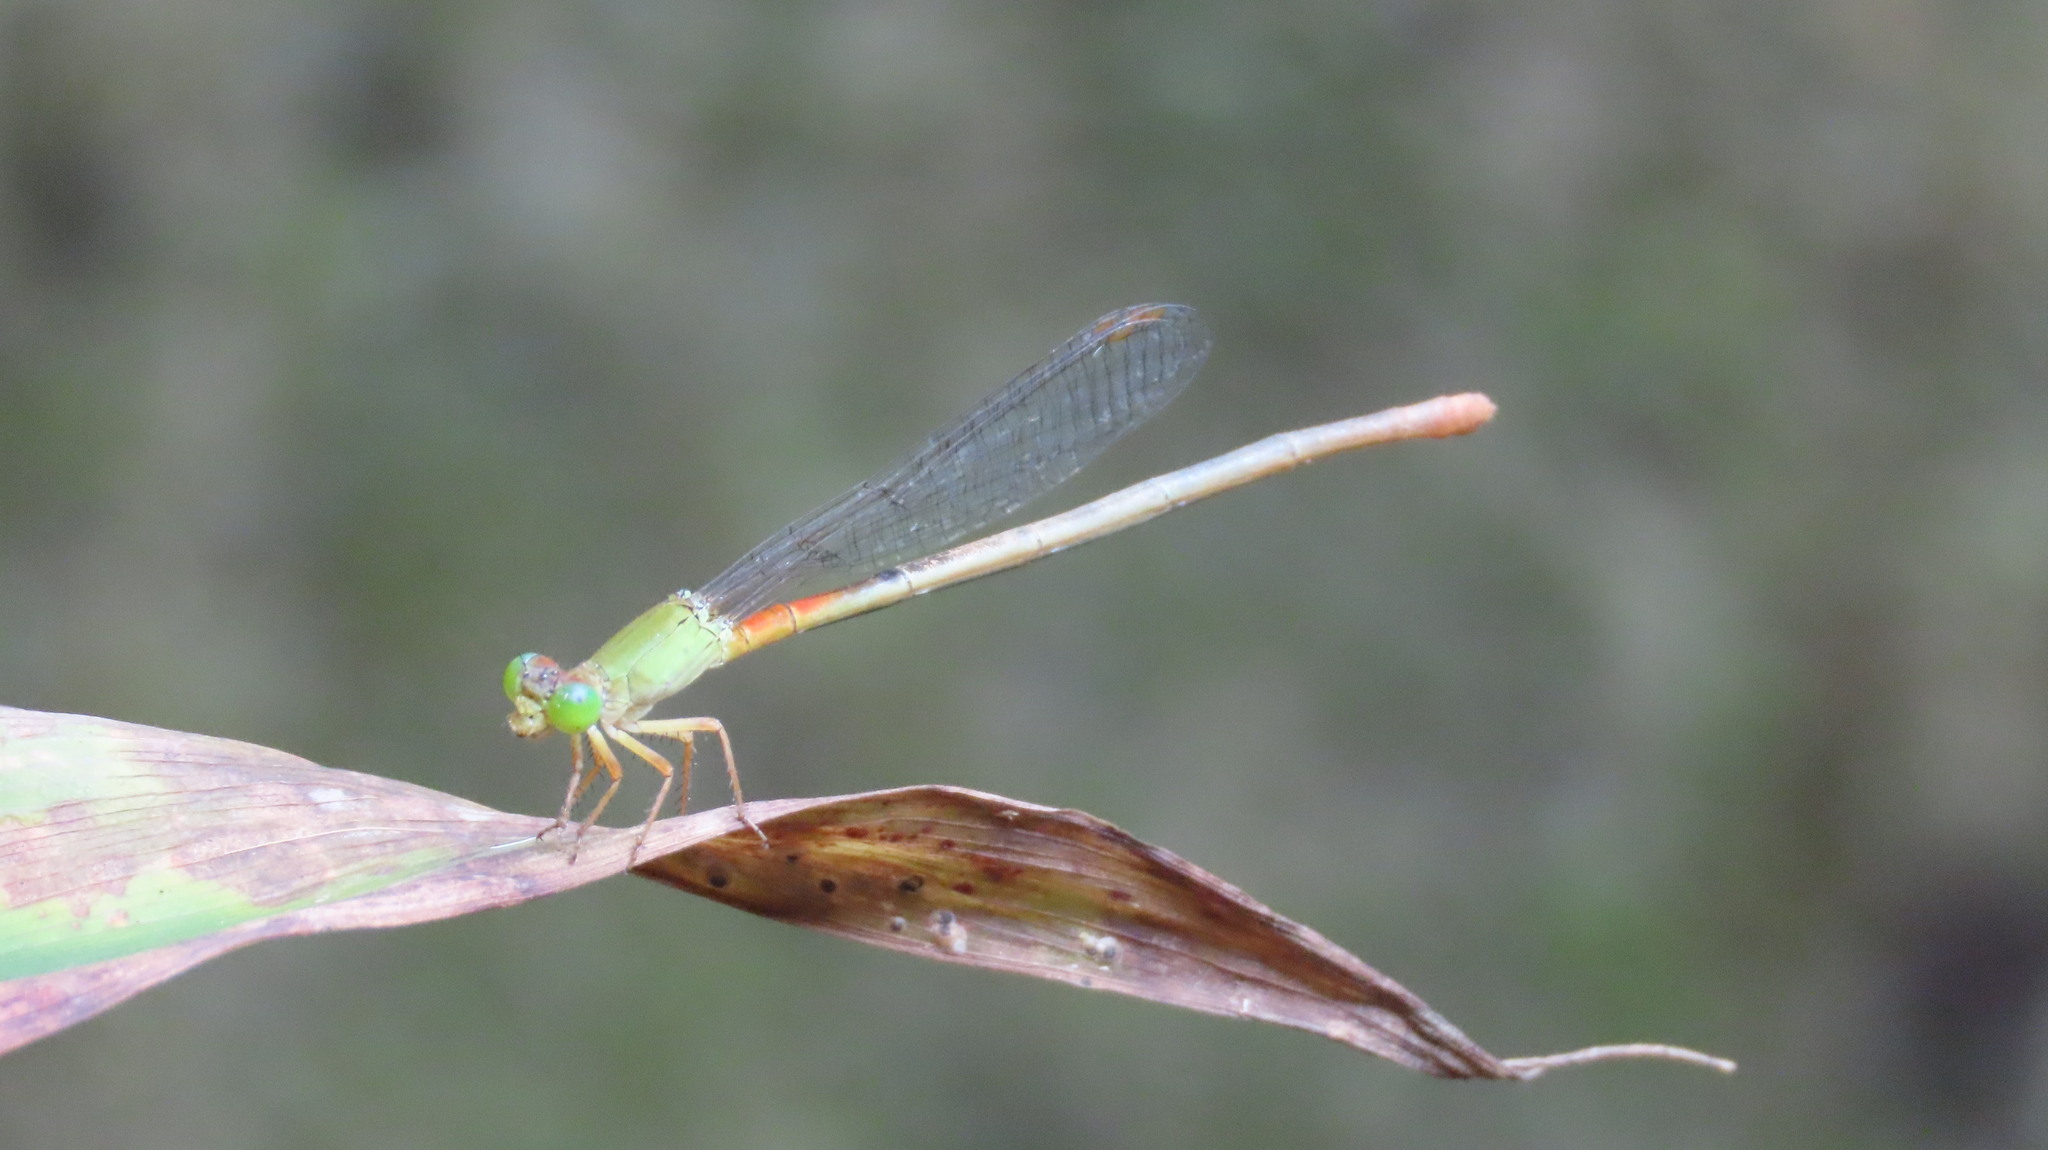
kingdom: Animalia
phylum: Arthropoda
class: Insecta
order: Odonata
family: Coenagrionidae
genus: Ceriagrion
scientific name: Ceriagrion cerinorubellum
